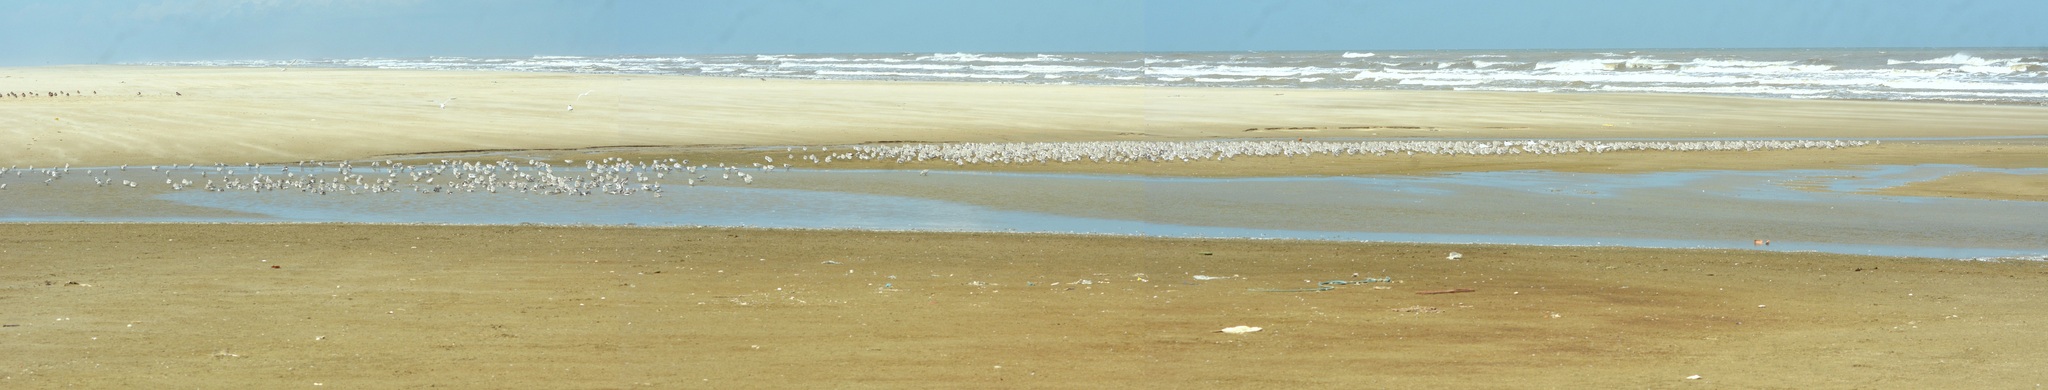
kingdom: Animalia
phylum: Chordata
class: Aves
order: Charadriiformes
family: Scolopacidae
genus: Calidris
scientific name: Calidris alba
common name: Sanderling
